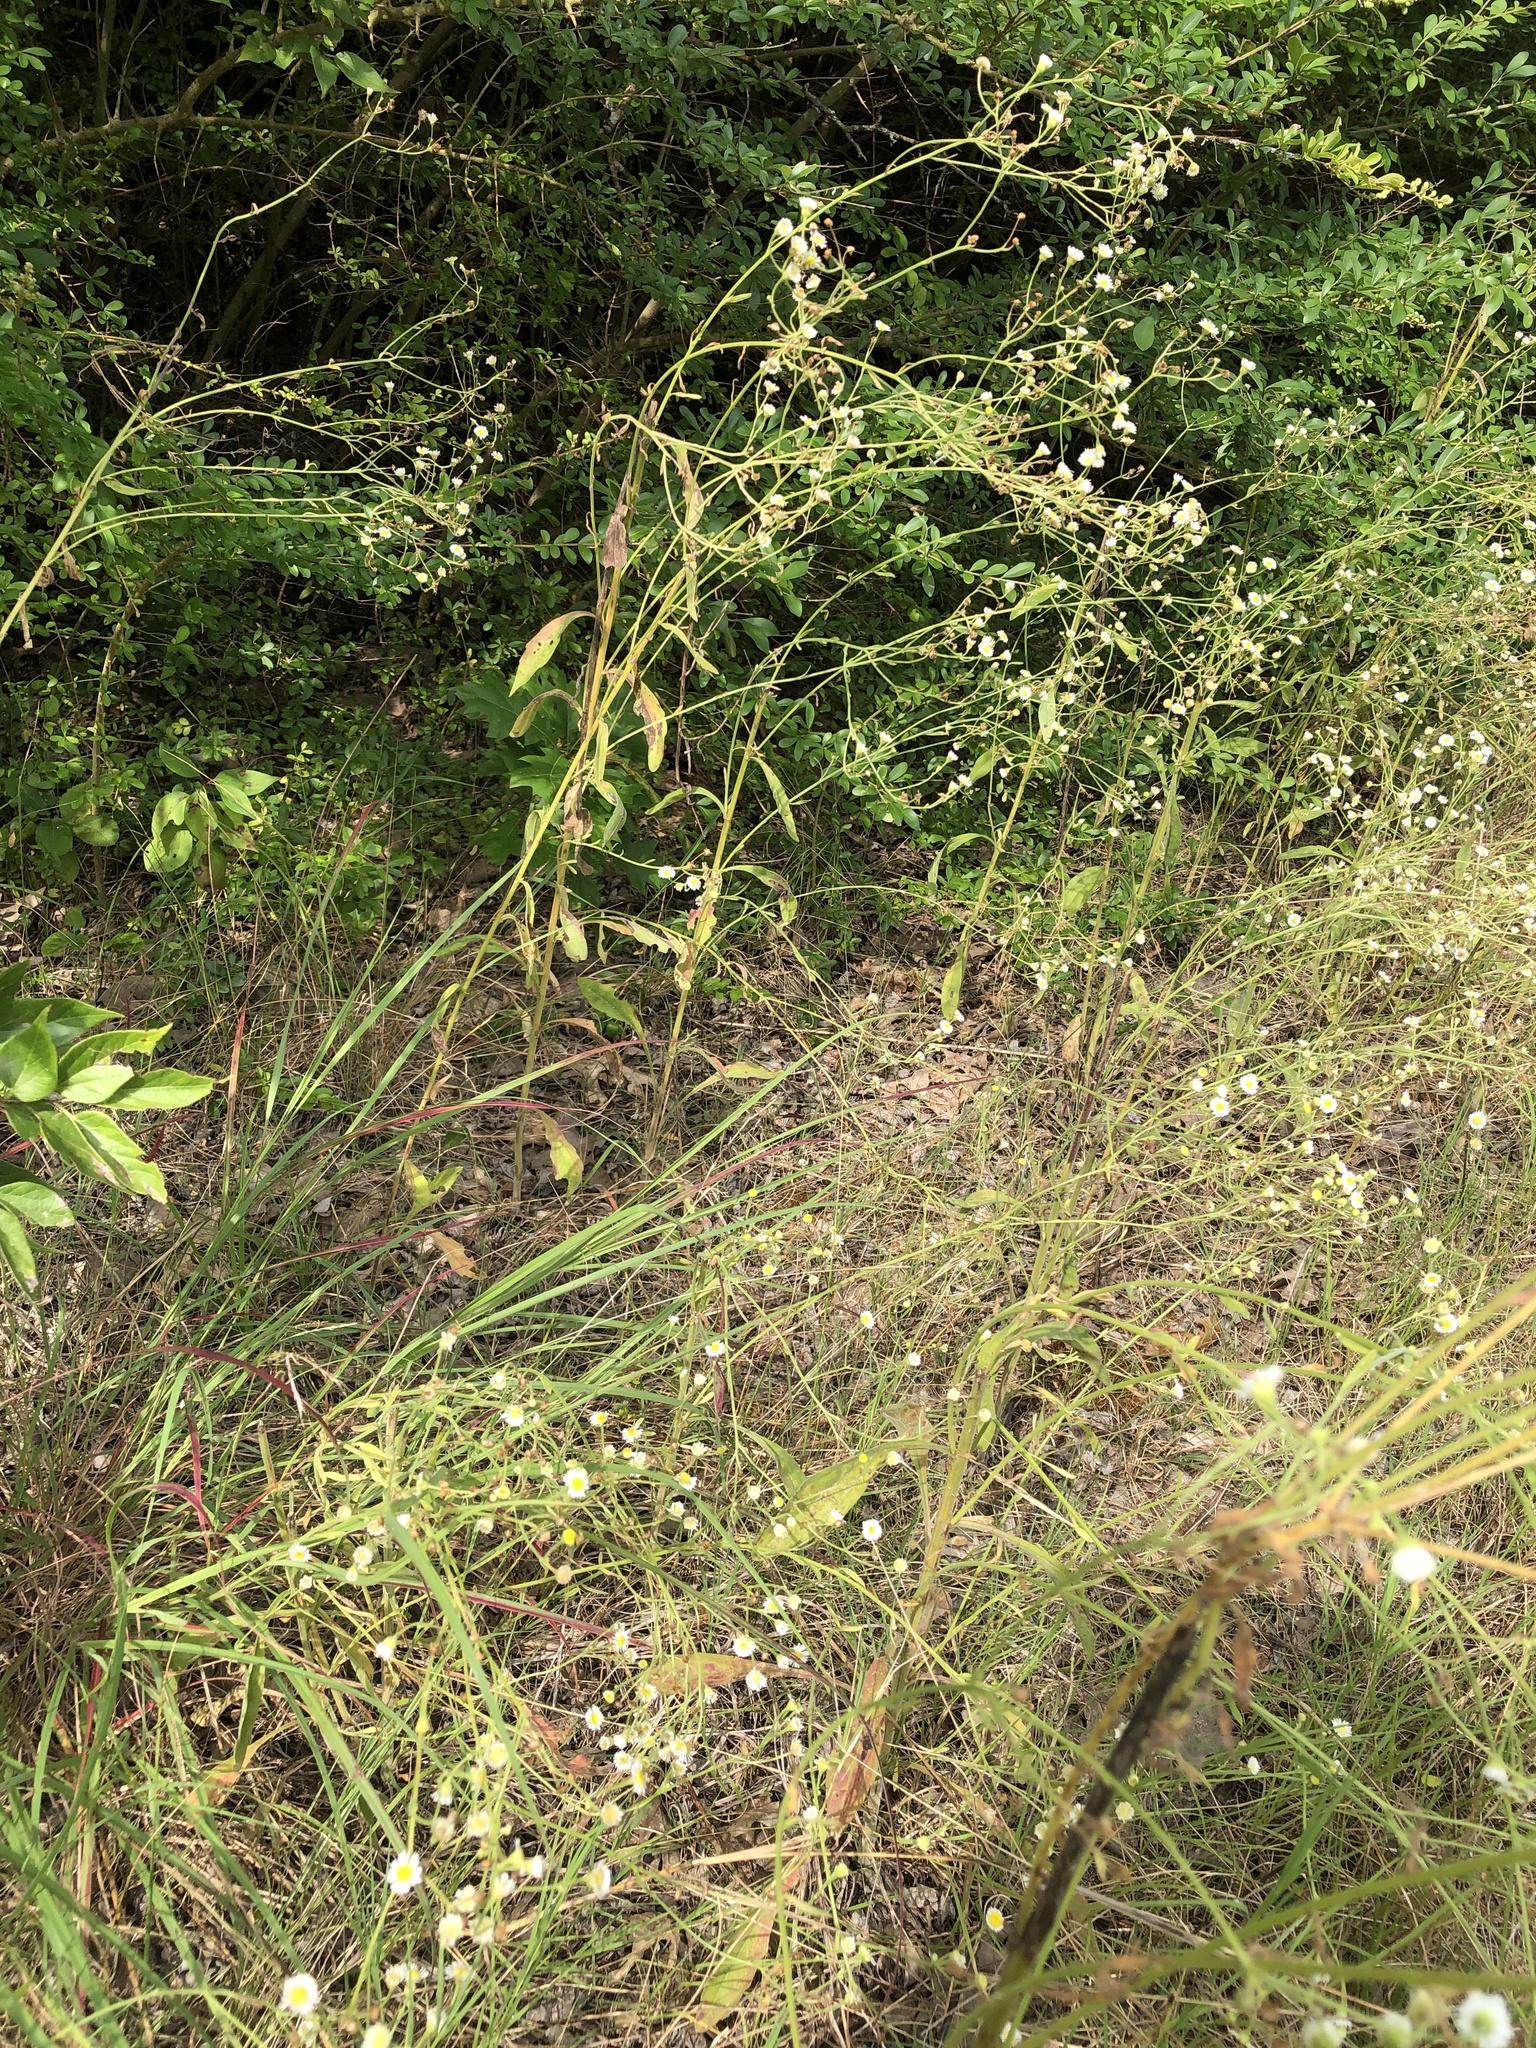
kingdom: Plantae
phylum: Tracheophyta
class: Magnoliopsida
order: Asterales
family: Asteraceae
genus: Erigeron
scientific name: Erigeron strigosus
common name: Common eastern fleabane
